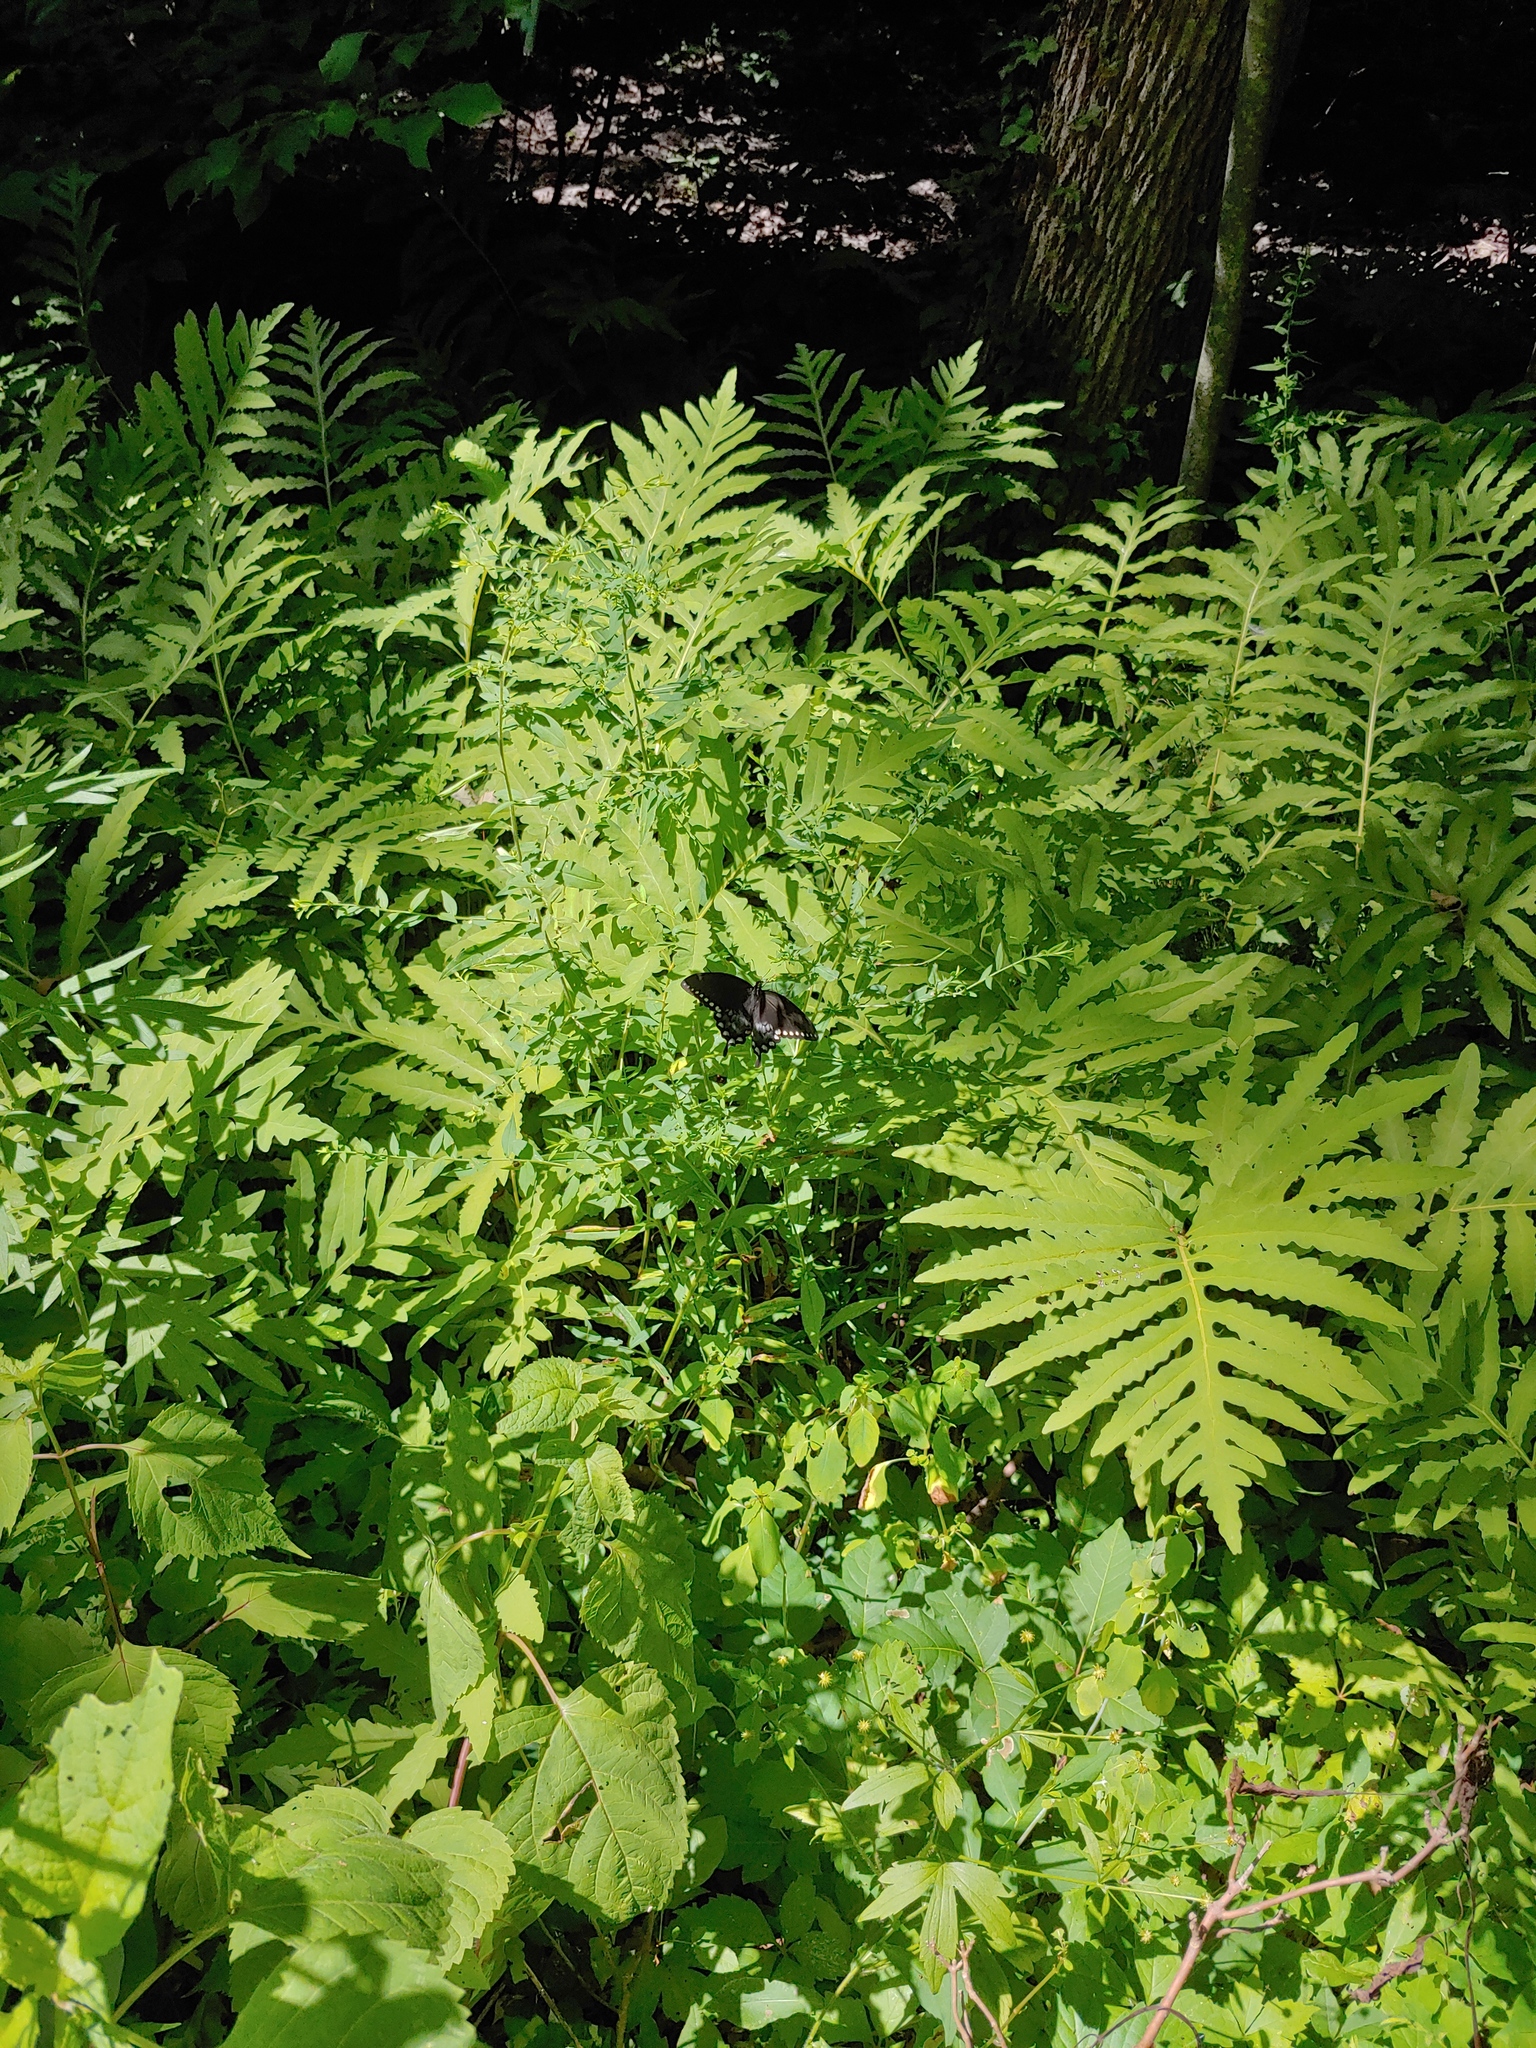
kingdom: Animalia
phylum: Arthropoda
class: Insecta
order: Lepidoptera
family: Papilionidae
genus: Papilio
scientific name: Papilio troilus
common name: Spicebush swallowtail
